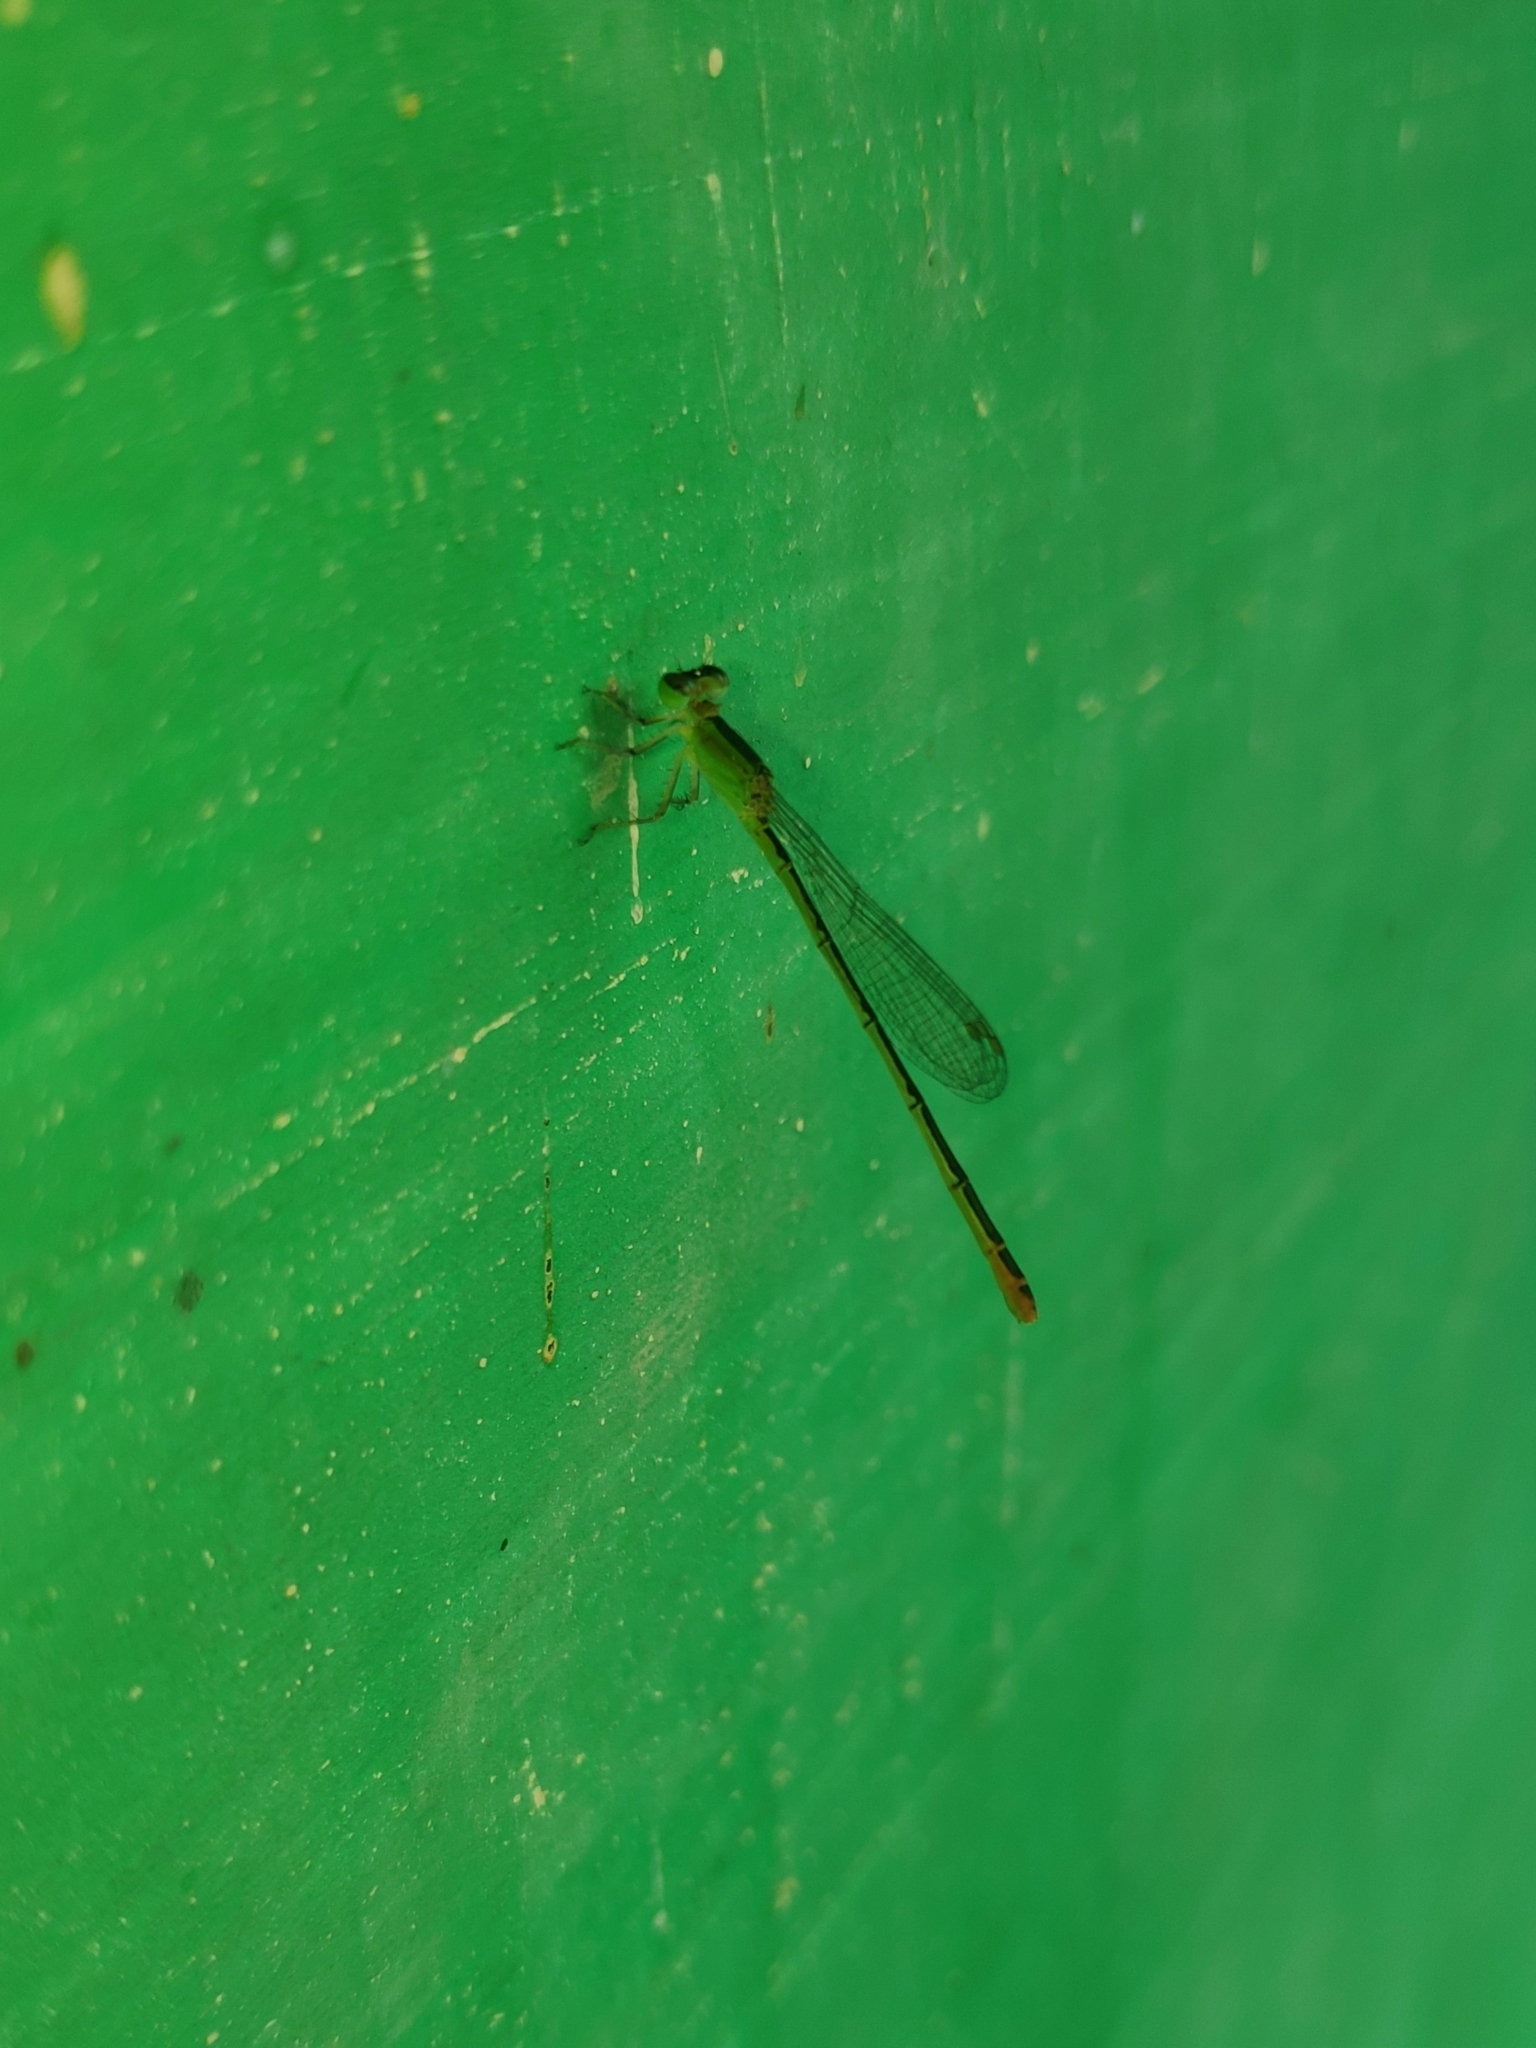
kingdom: Animalia
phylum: Arthropoda
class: Insecta
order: Odonata
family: Coenagrionidae
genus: Agriocnemis
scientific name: Agriocnemis femina
